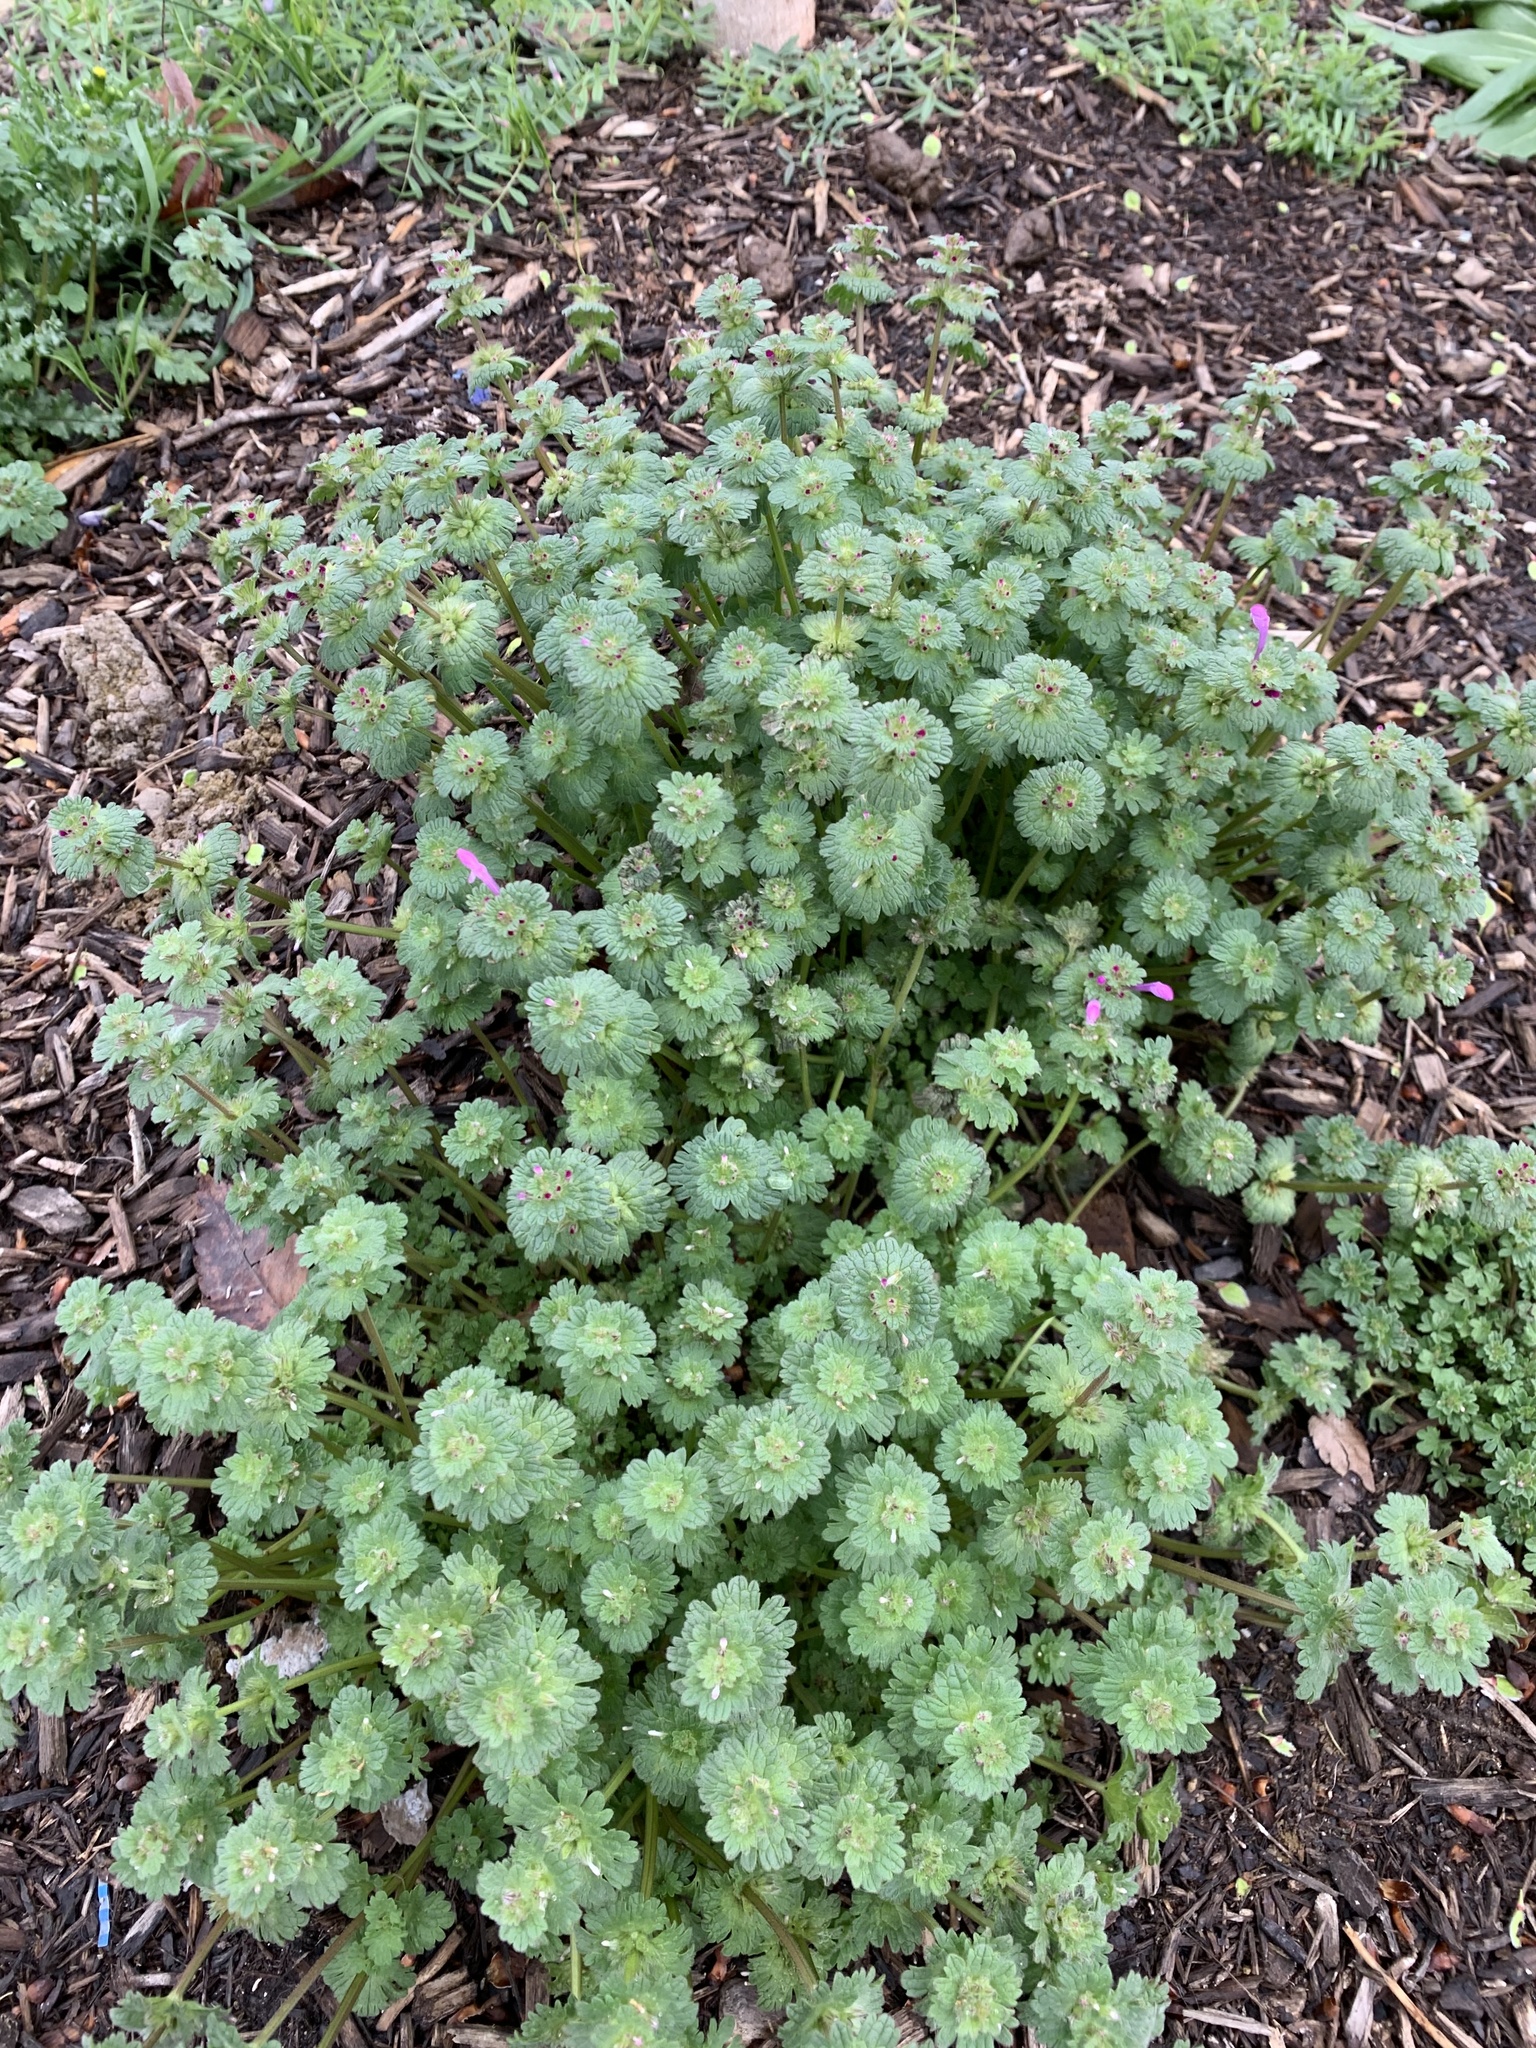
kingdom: Plantae
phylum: Tracheophyta
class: Magnoliopsida
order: Lamiales
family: Lamiaceae
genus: Lamium
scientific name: Lamium amplexicaule
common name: Henbit dead-nettle
